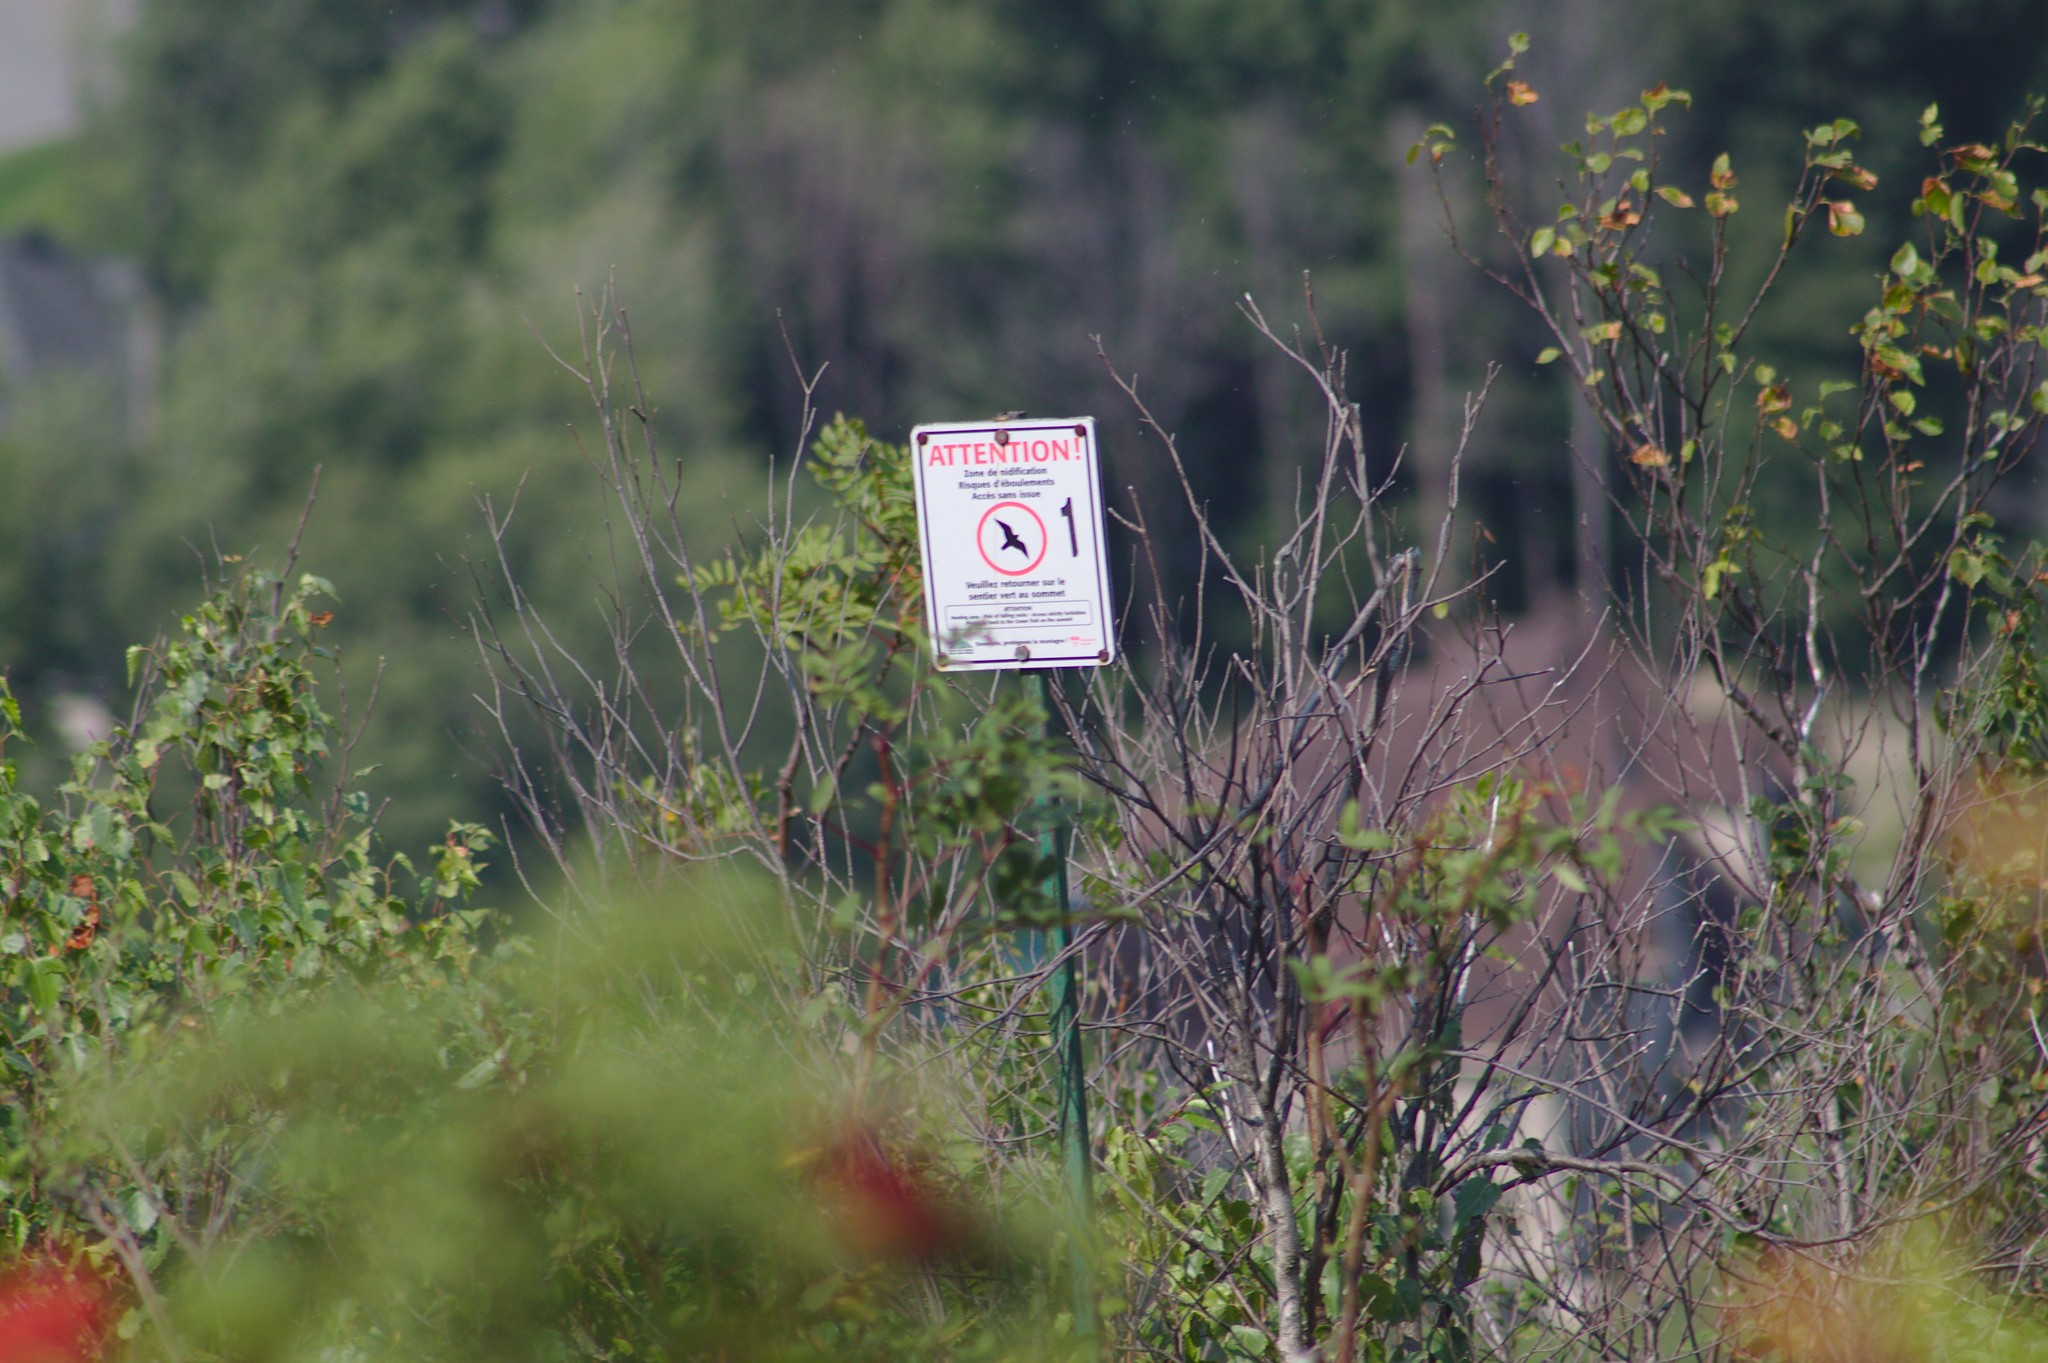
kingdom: Plantae
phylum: Tracheophyta
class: Magnoliopsida
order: Ranunculales
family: Papaveraceae
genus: Capnoides
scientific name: Capnoides sempervirens
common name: Rock harlequin
